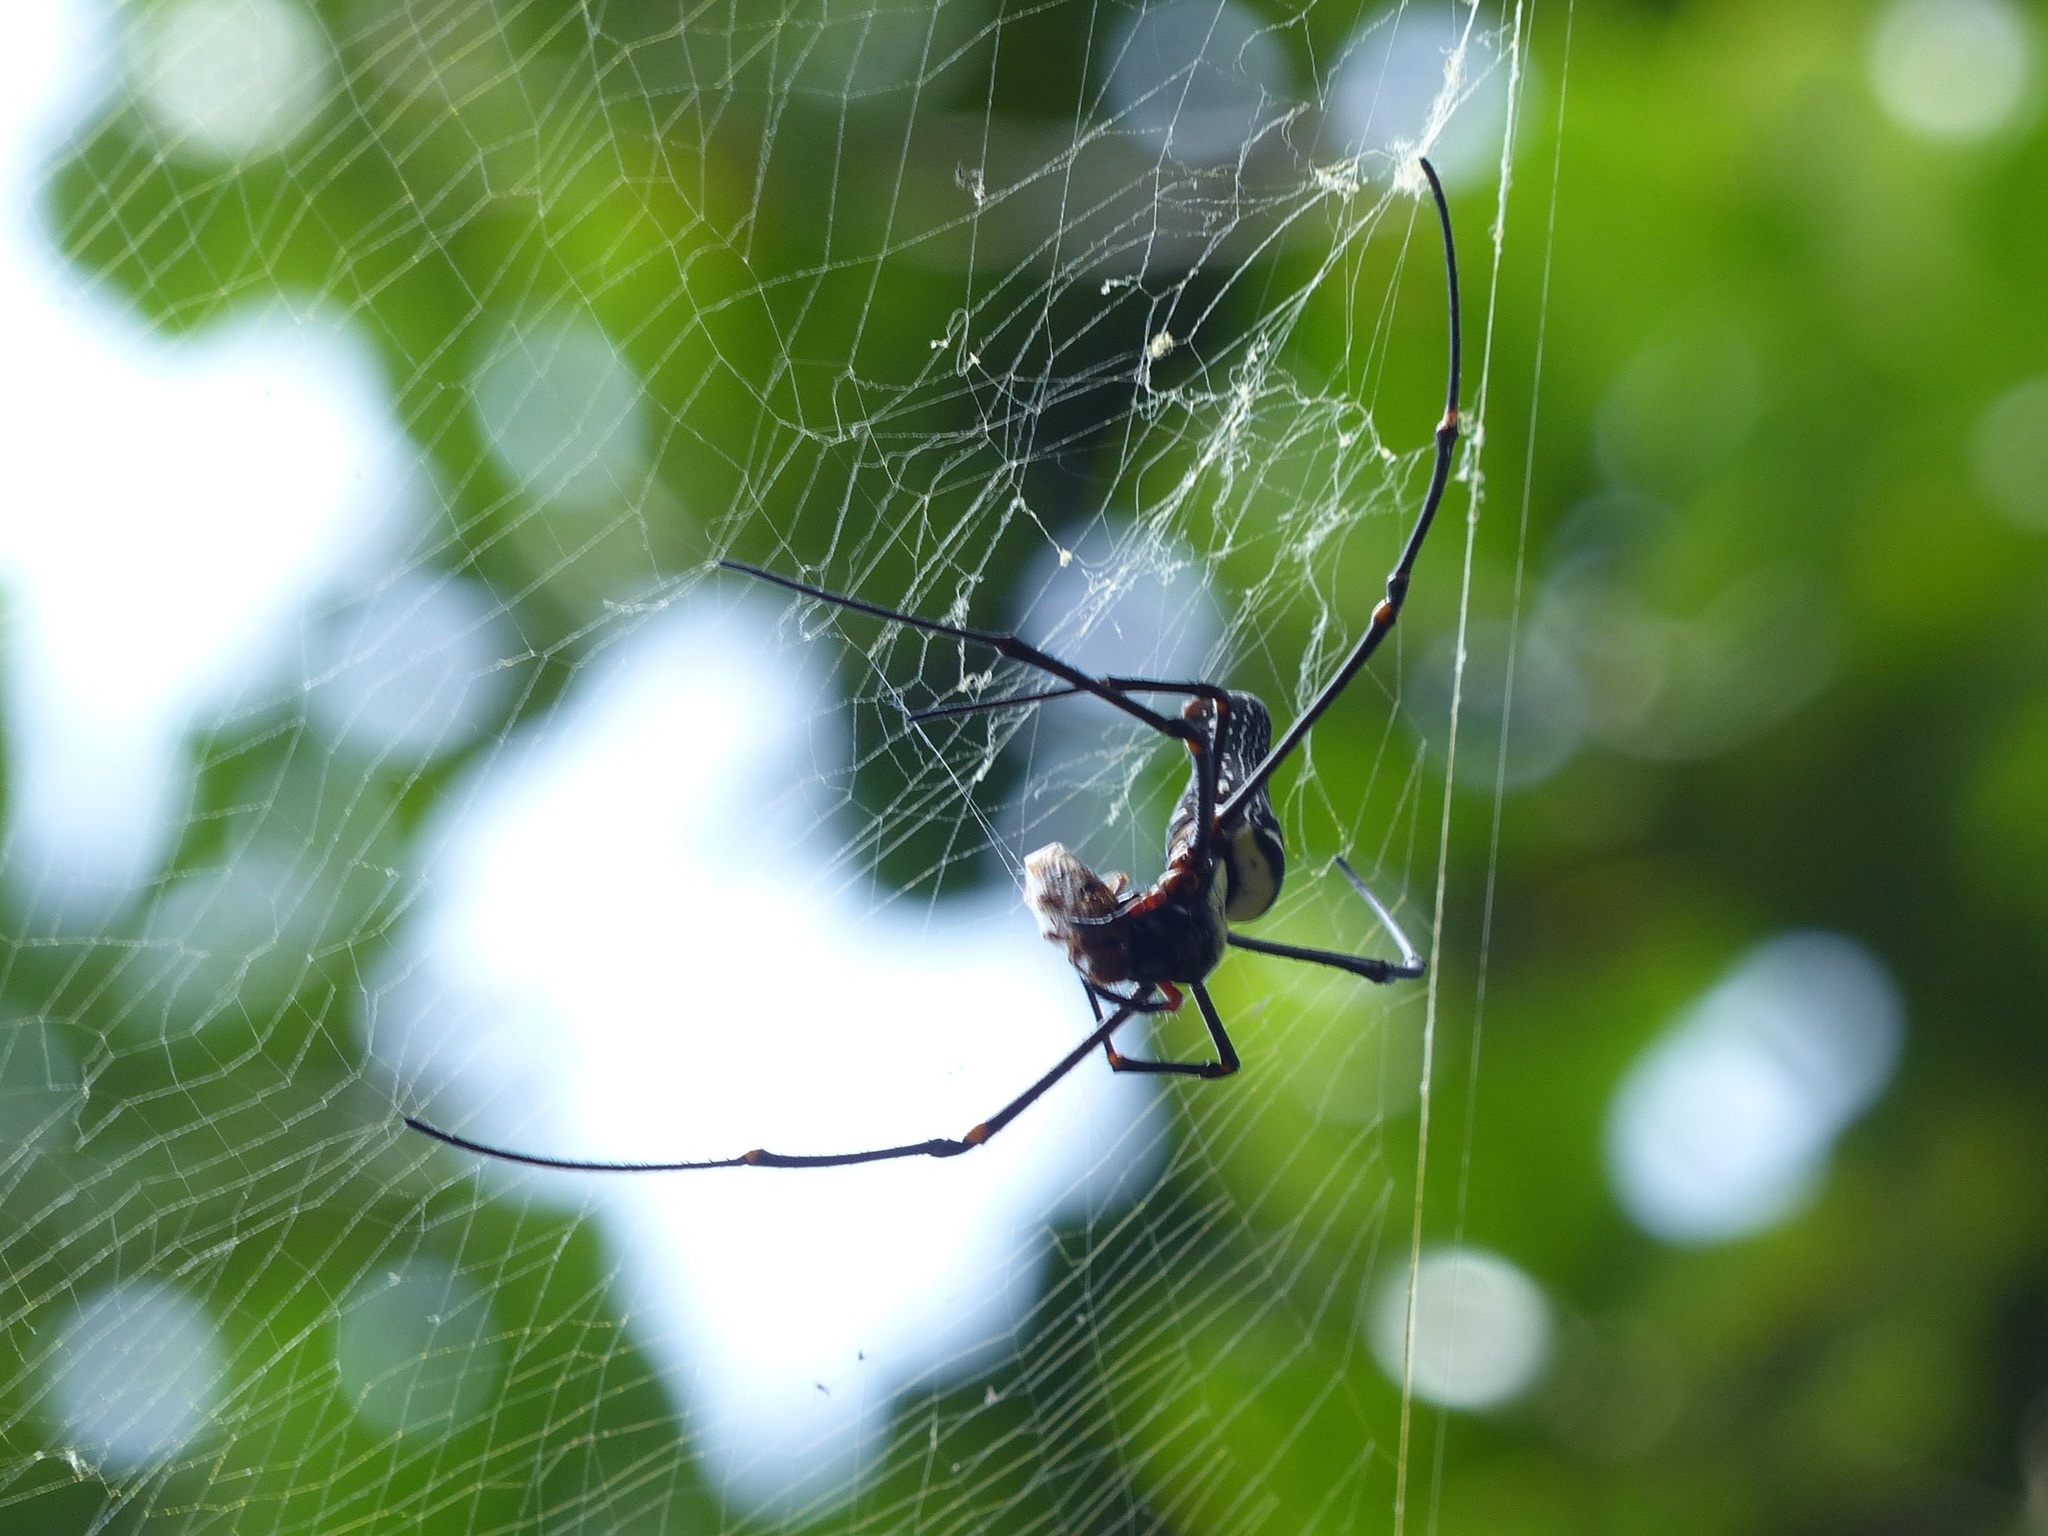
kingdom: Animalia
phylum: Arthropoda
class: Arachnida
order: Araneae
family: Araneidae
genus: Nephila
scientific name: Nephila pilipes
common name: Giant golden orb weaver
